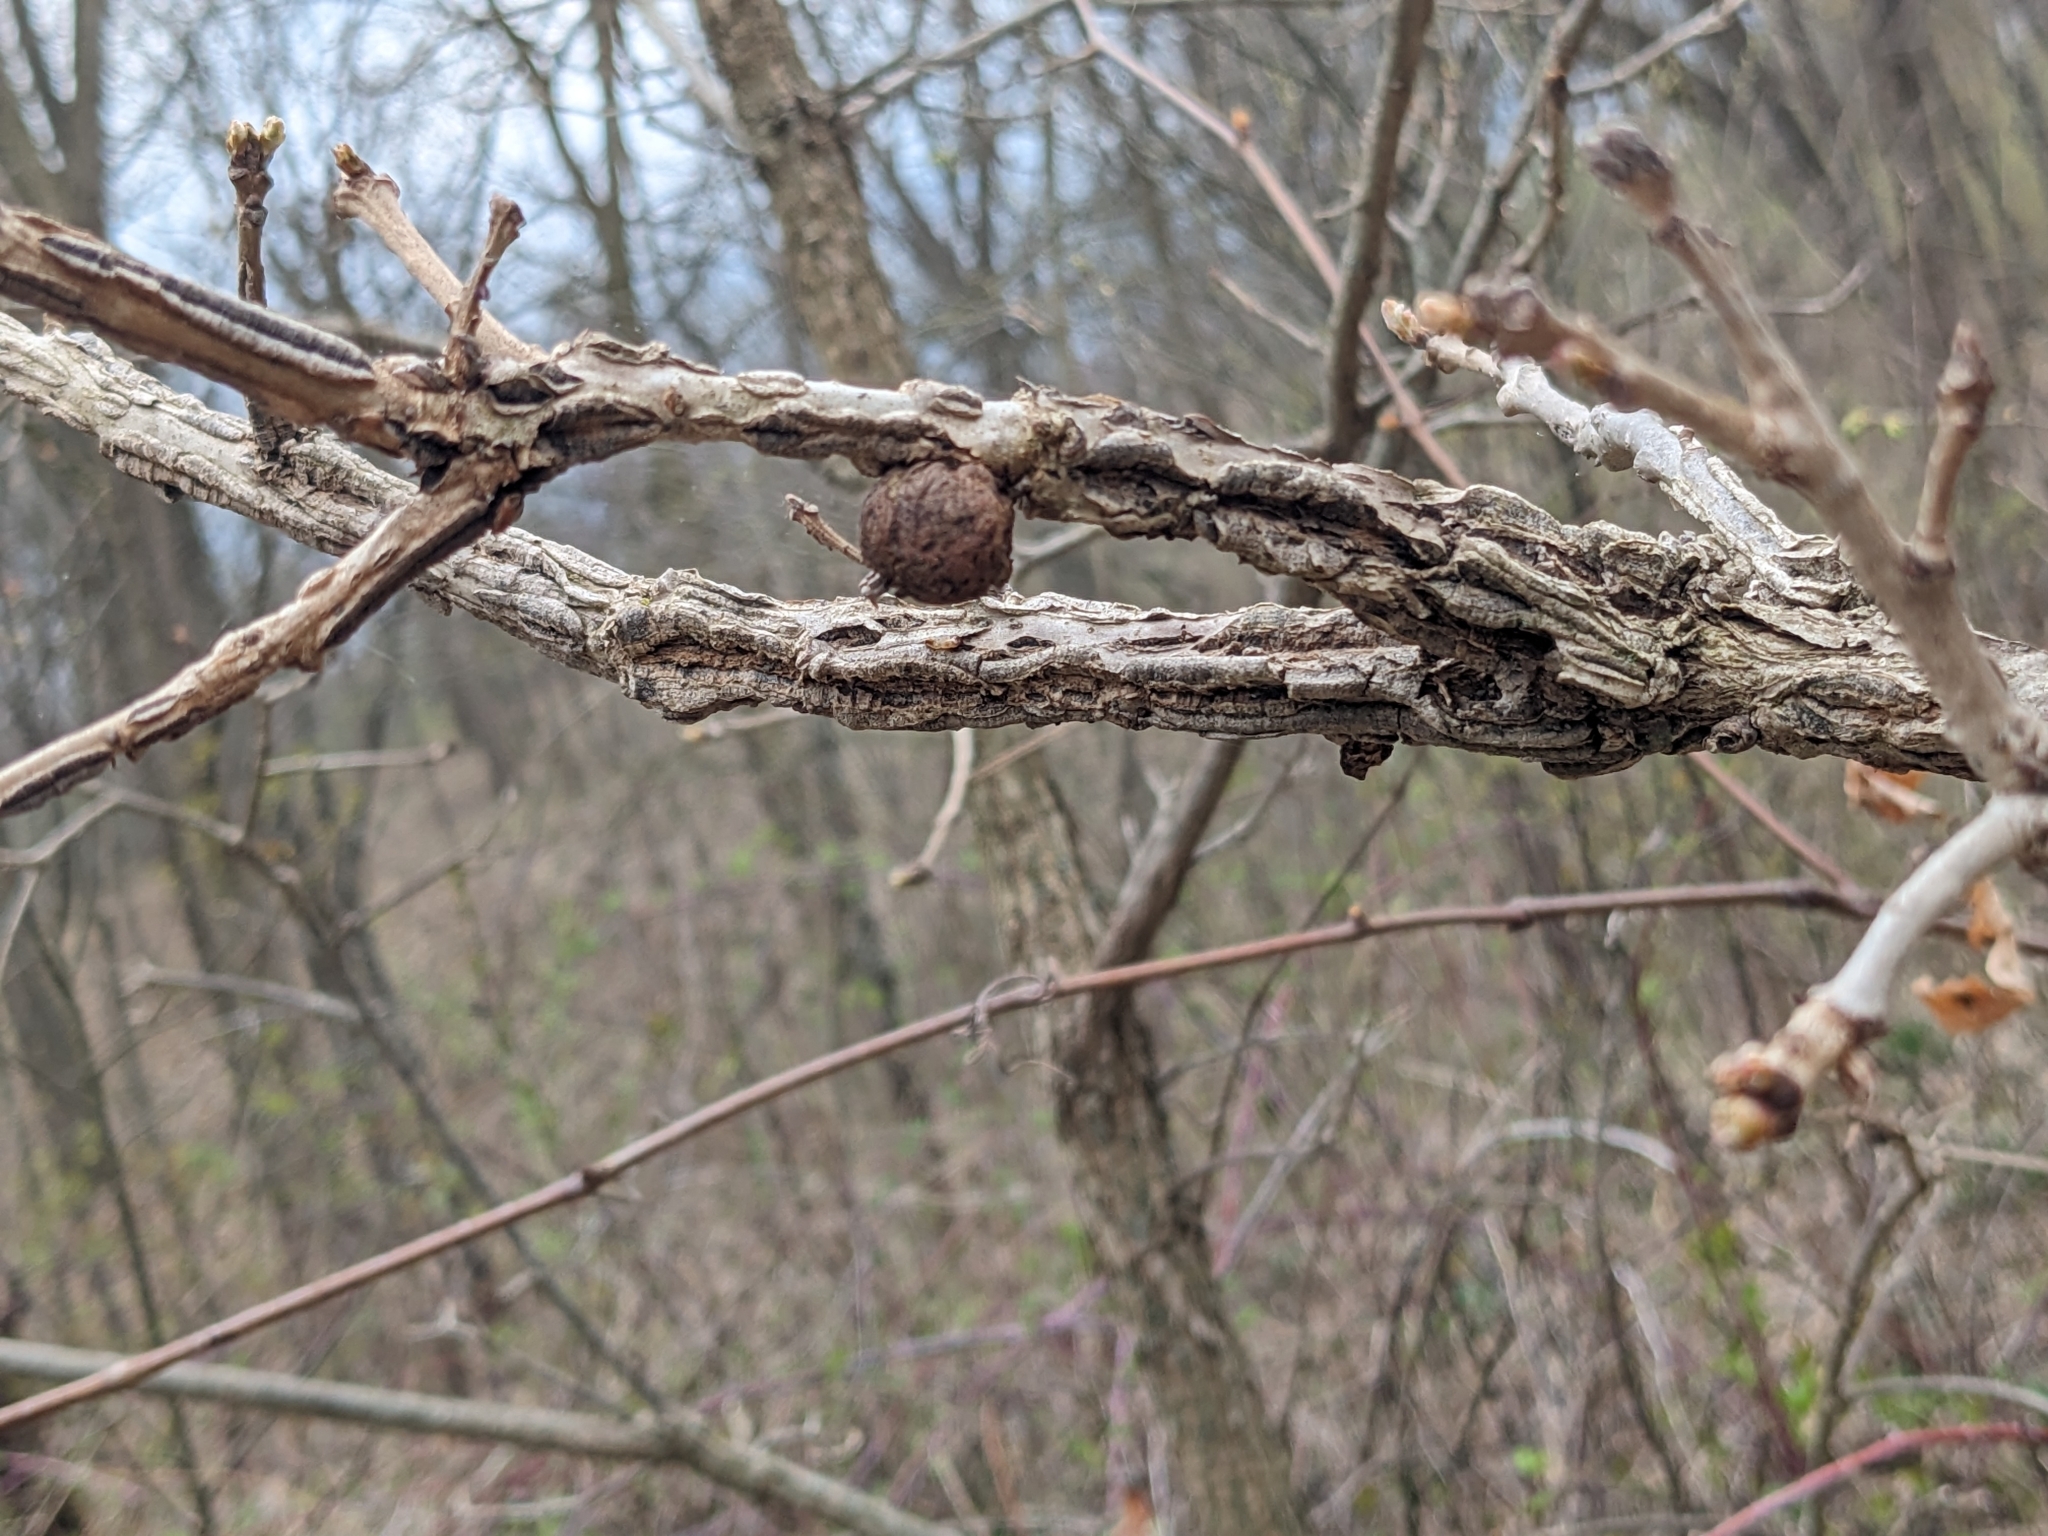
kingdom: Animalia
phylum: Arthropoda
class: Insecta
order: Hymenoptera
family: Cynipidae
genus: Disholcaspis
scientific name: Disholcaspis
